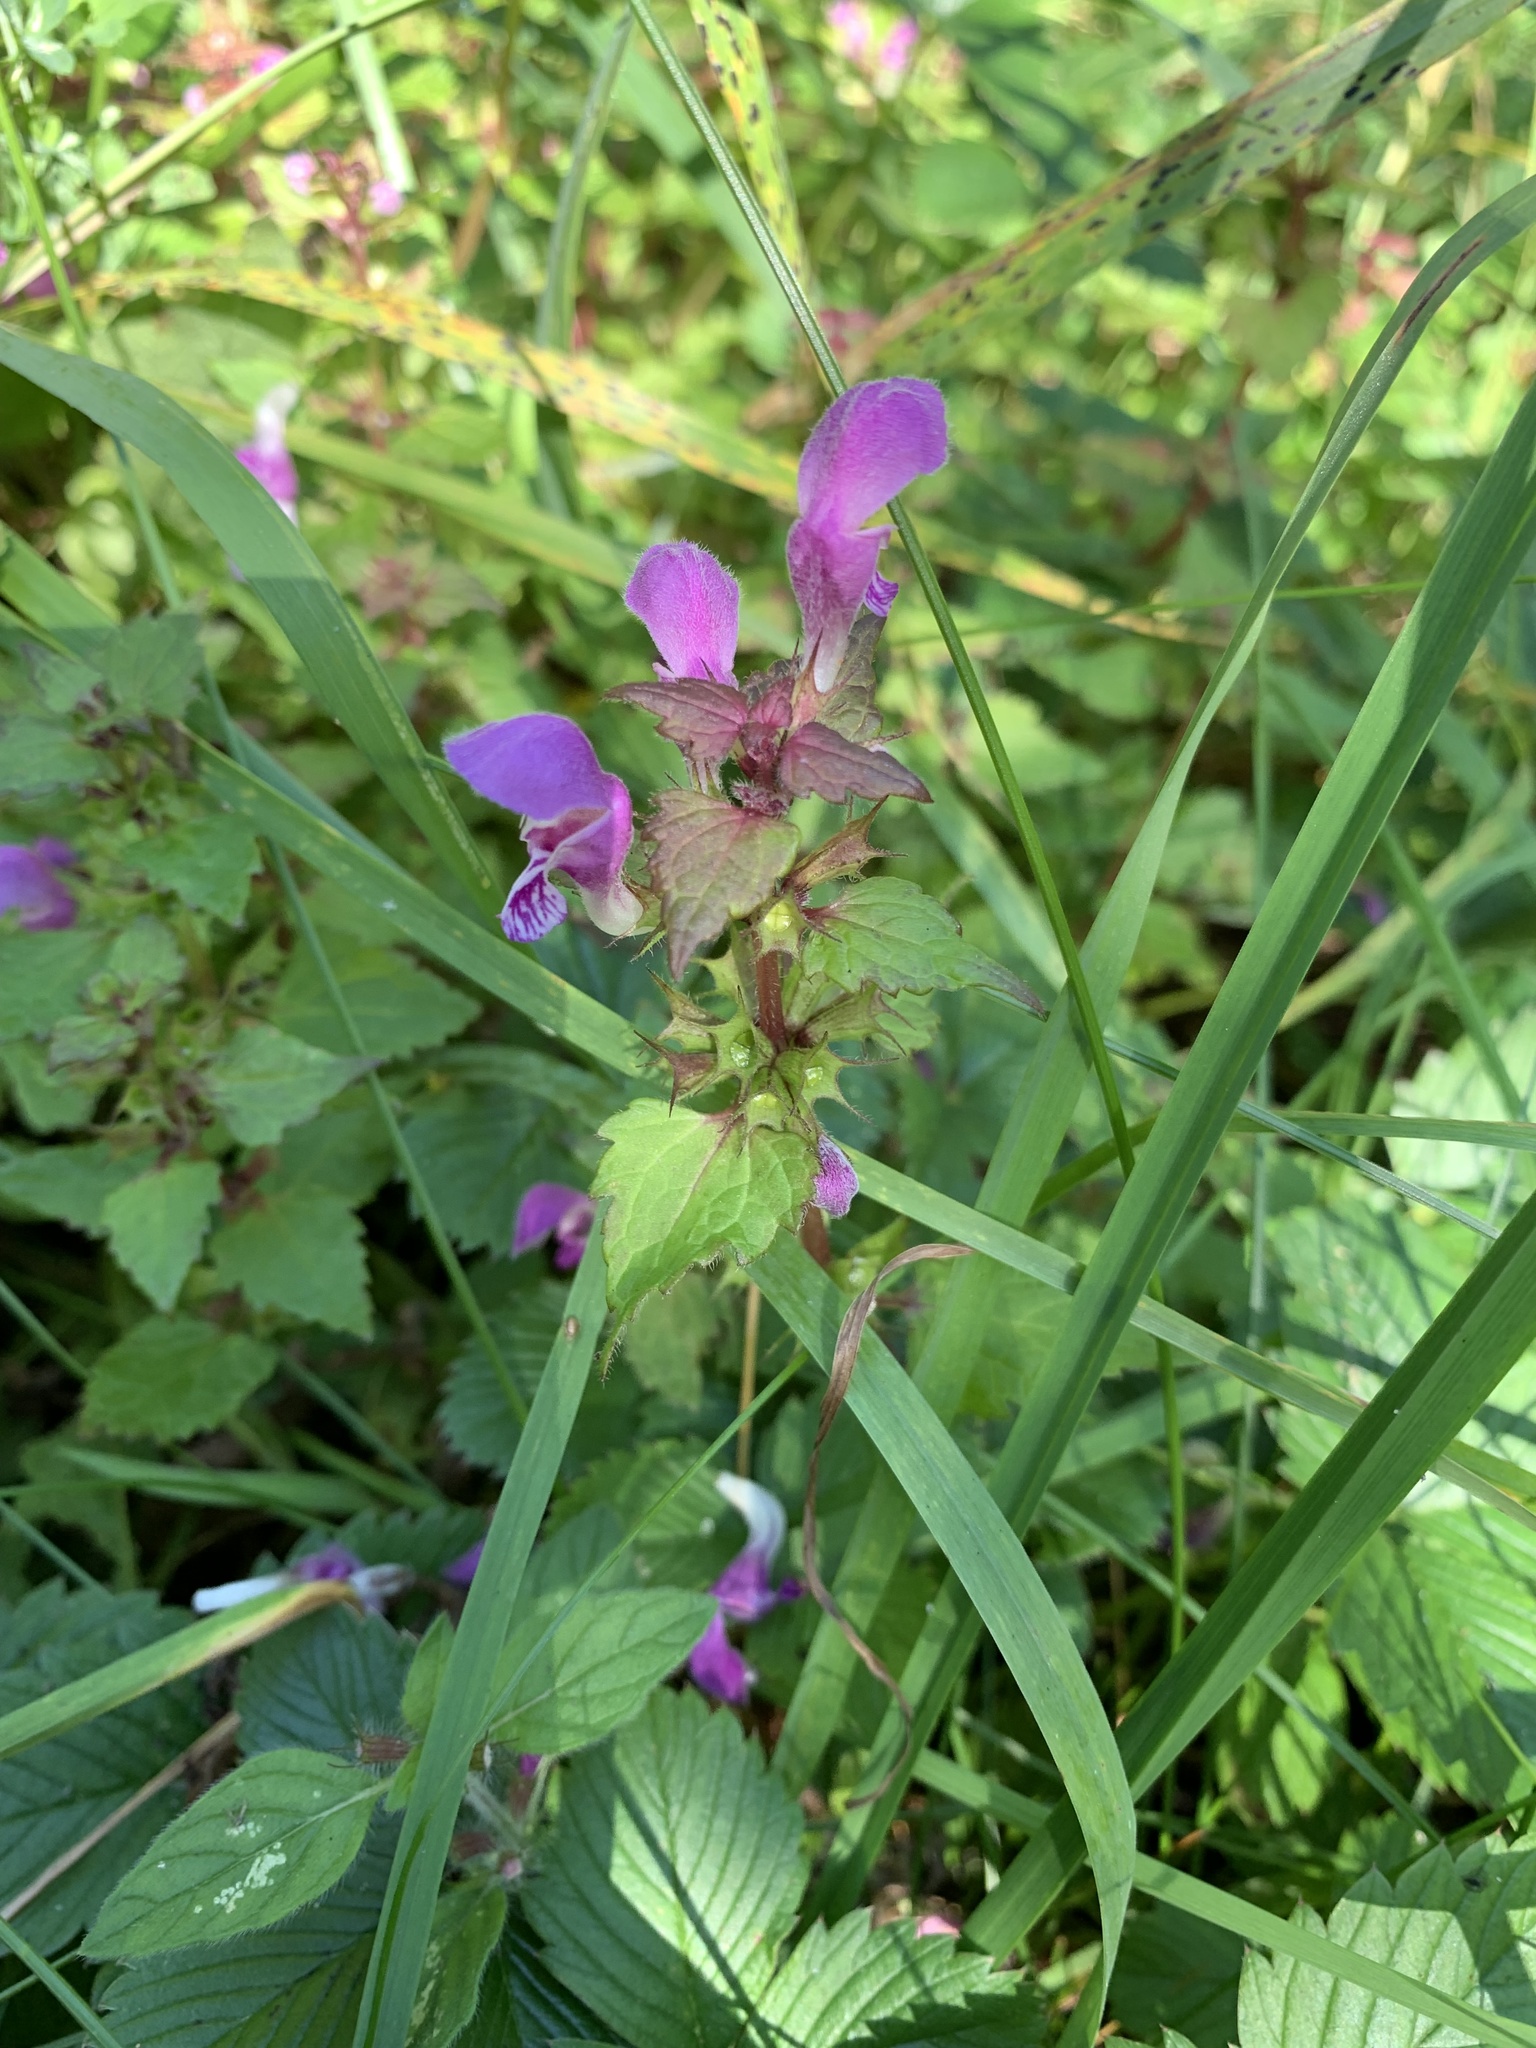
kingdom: Plantae
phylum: Tracheophyta
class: Magnoliopsida
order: Lamiales
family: Lamiaceae
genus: Lamium
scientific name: Lamium maculatum
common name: Spotted dead-nettle
